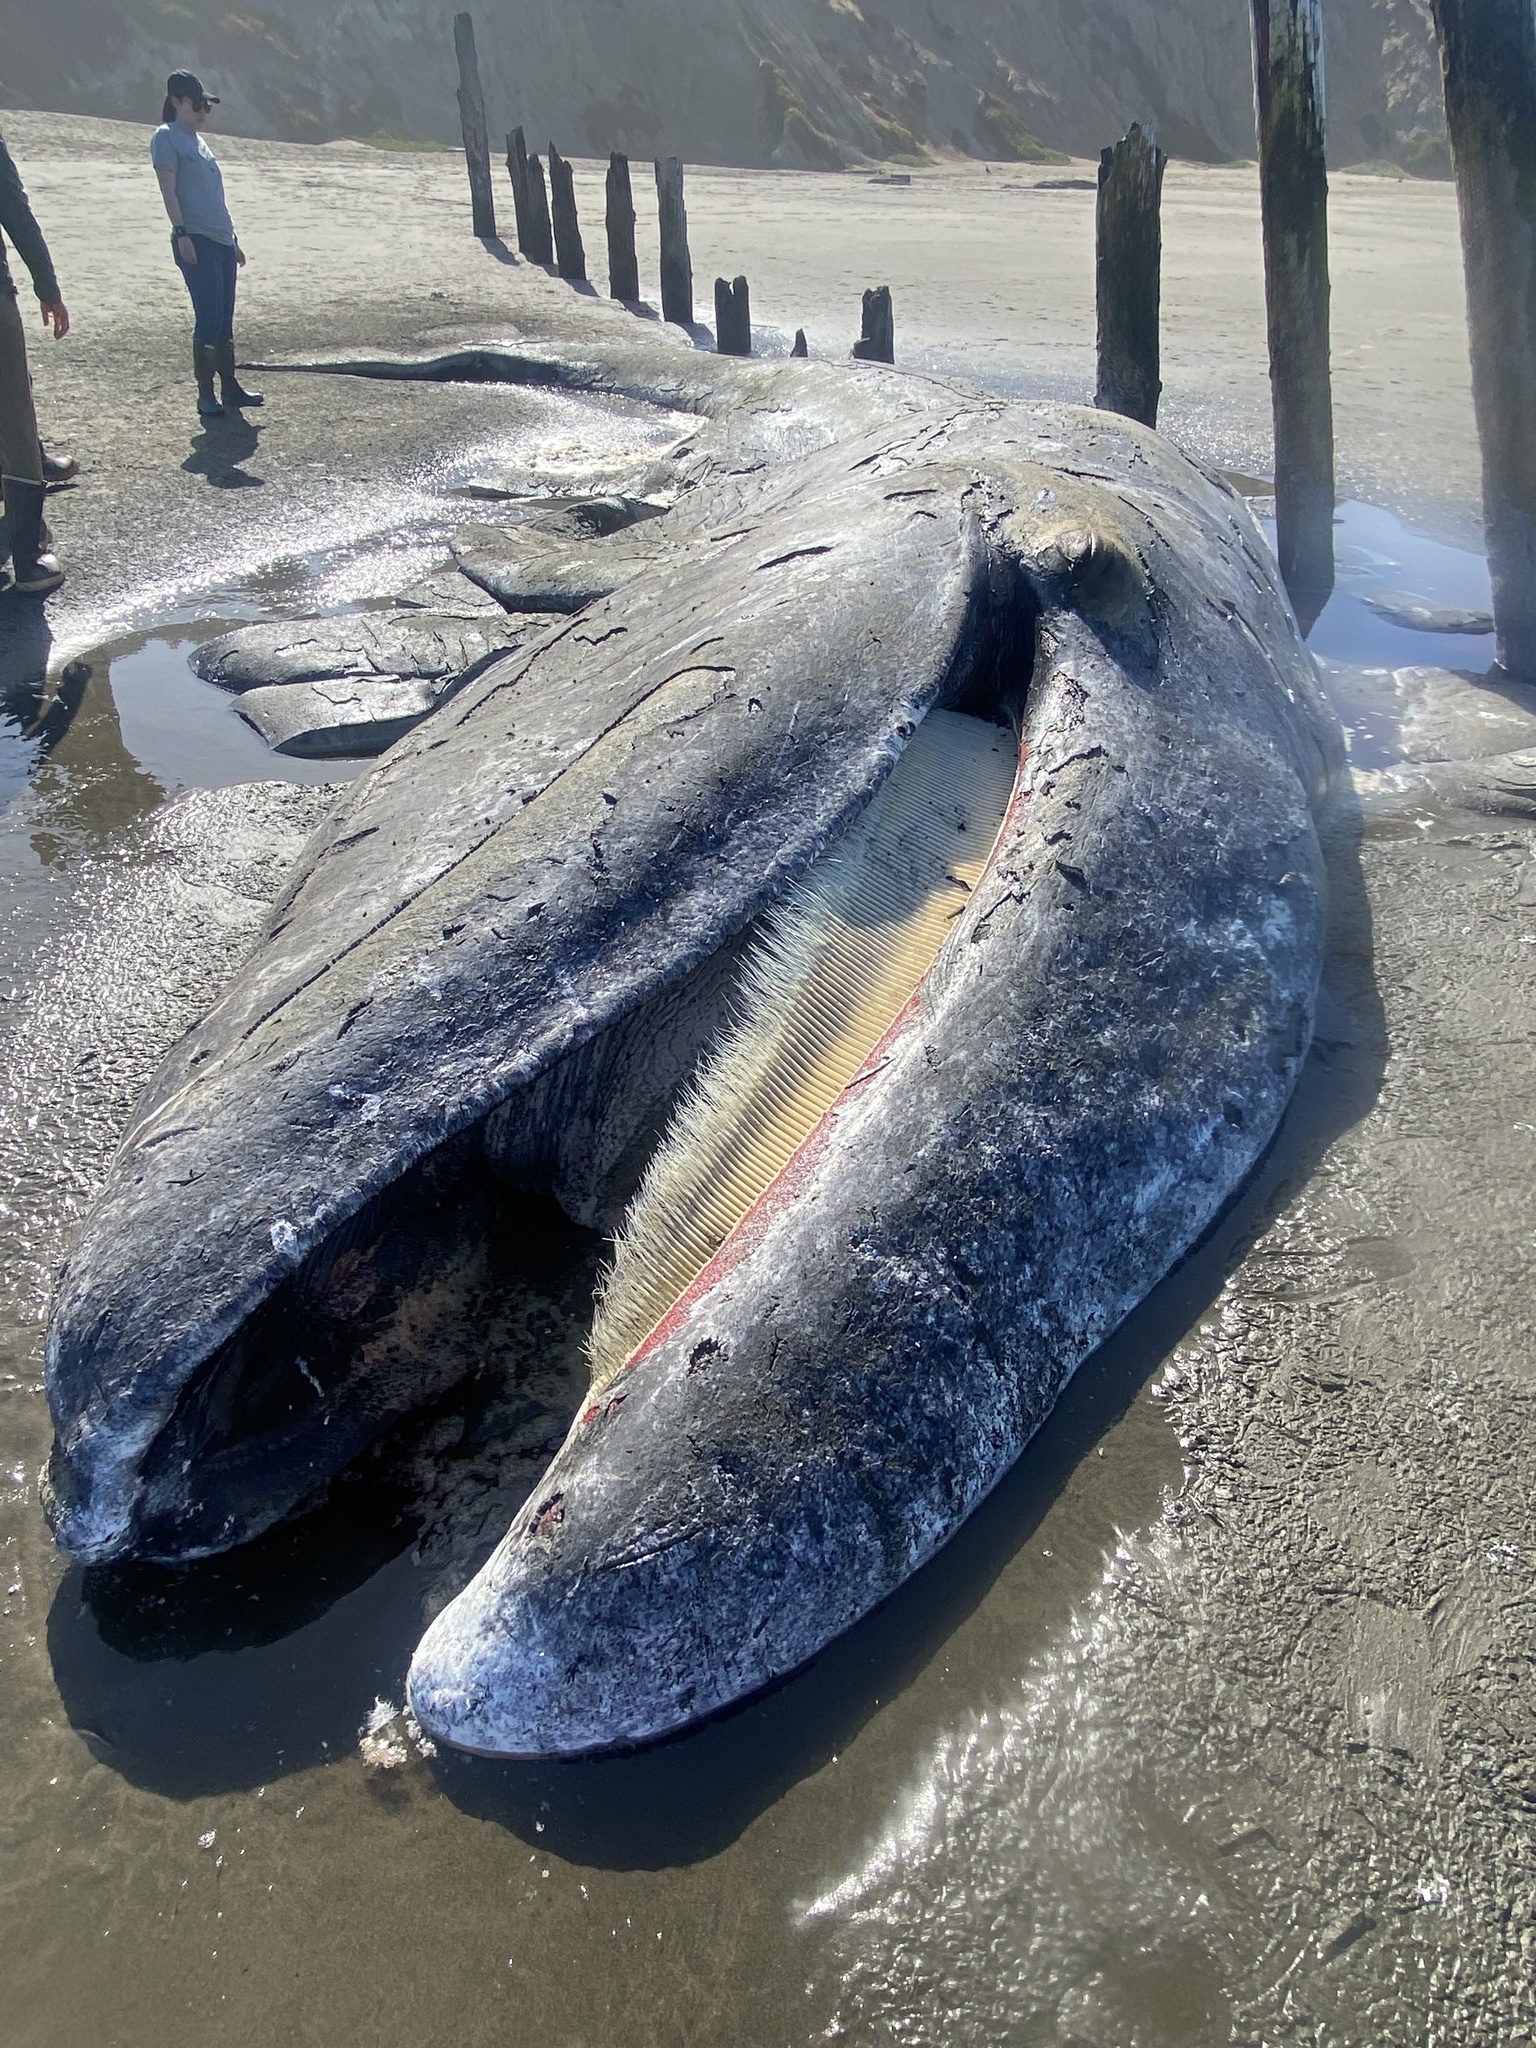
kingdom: Animalia
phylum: Chordata
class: Mammalia
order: Cetacea
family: Eschrichtiidae
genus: Eschrichtius
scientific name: Eschrichtius robustus
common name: Gray whale
